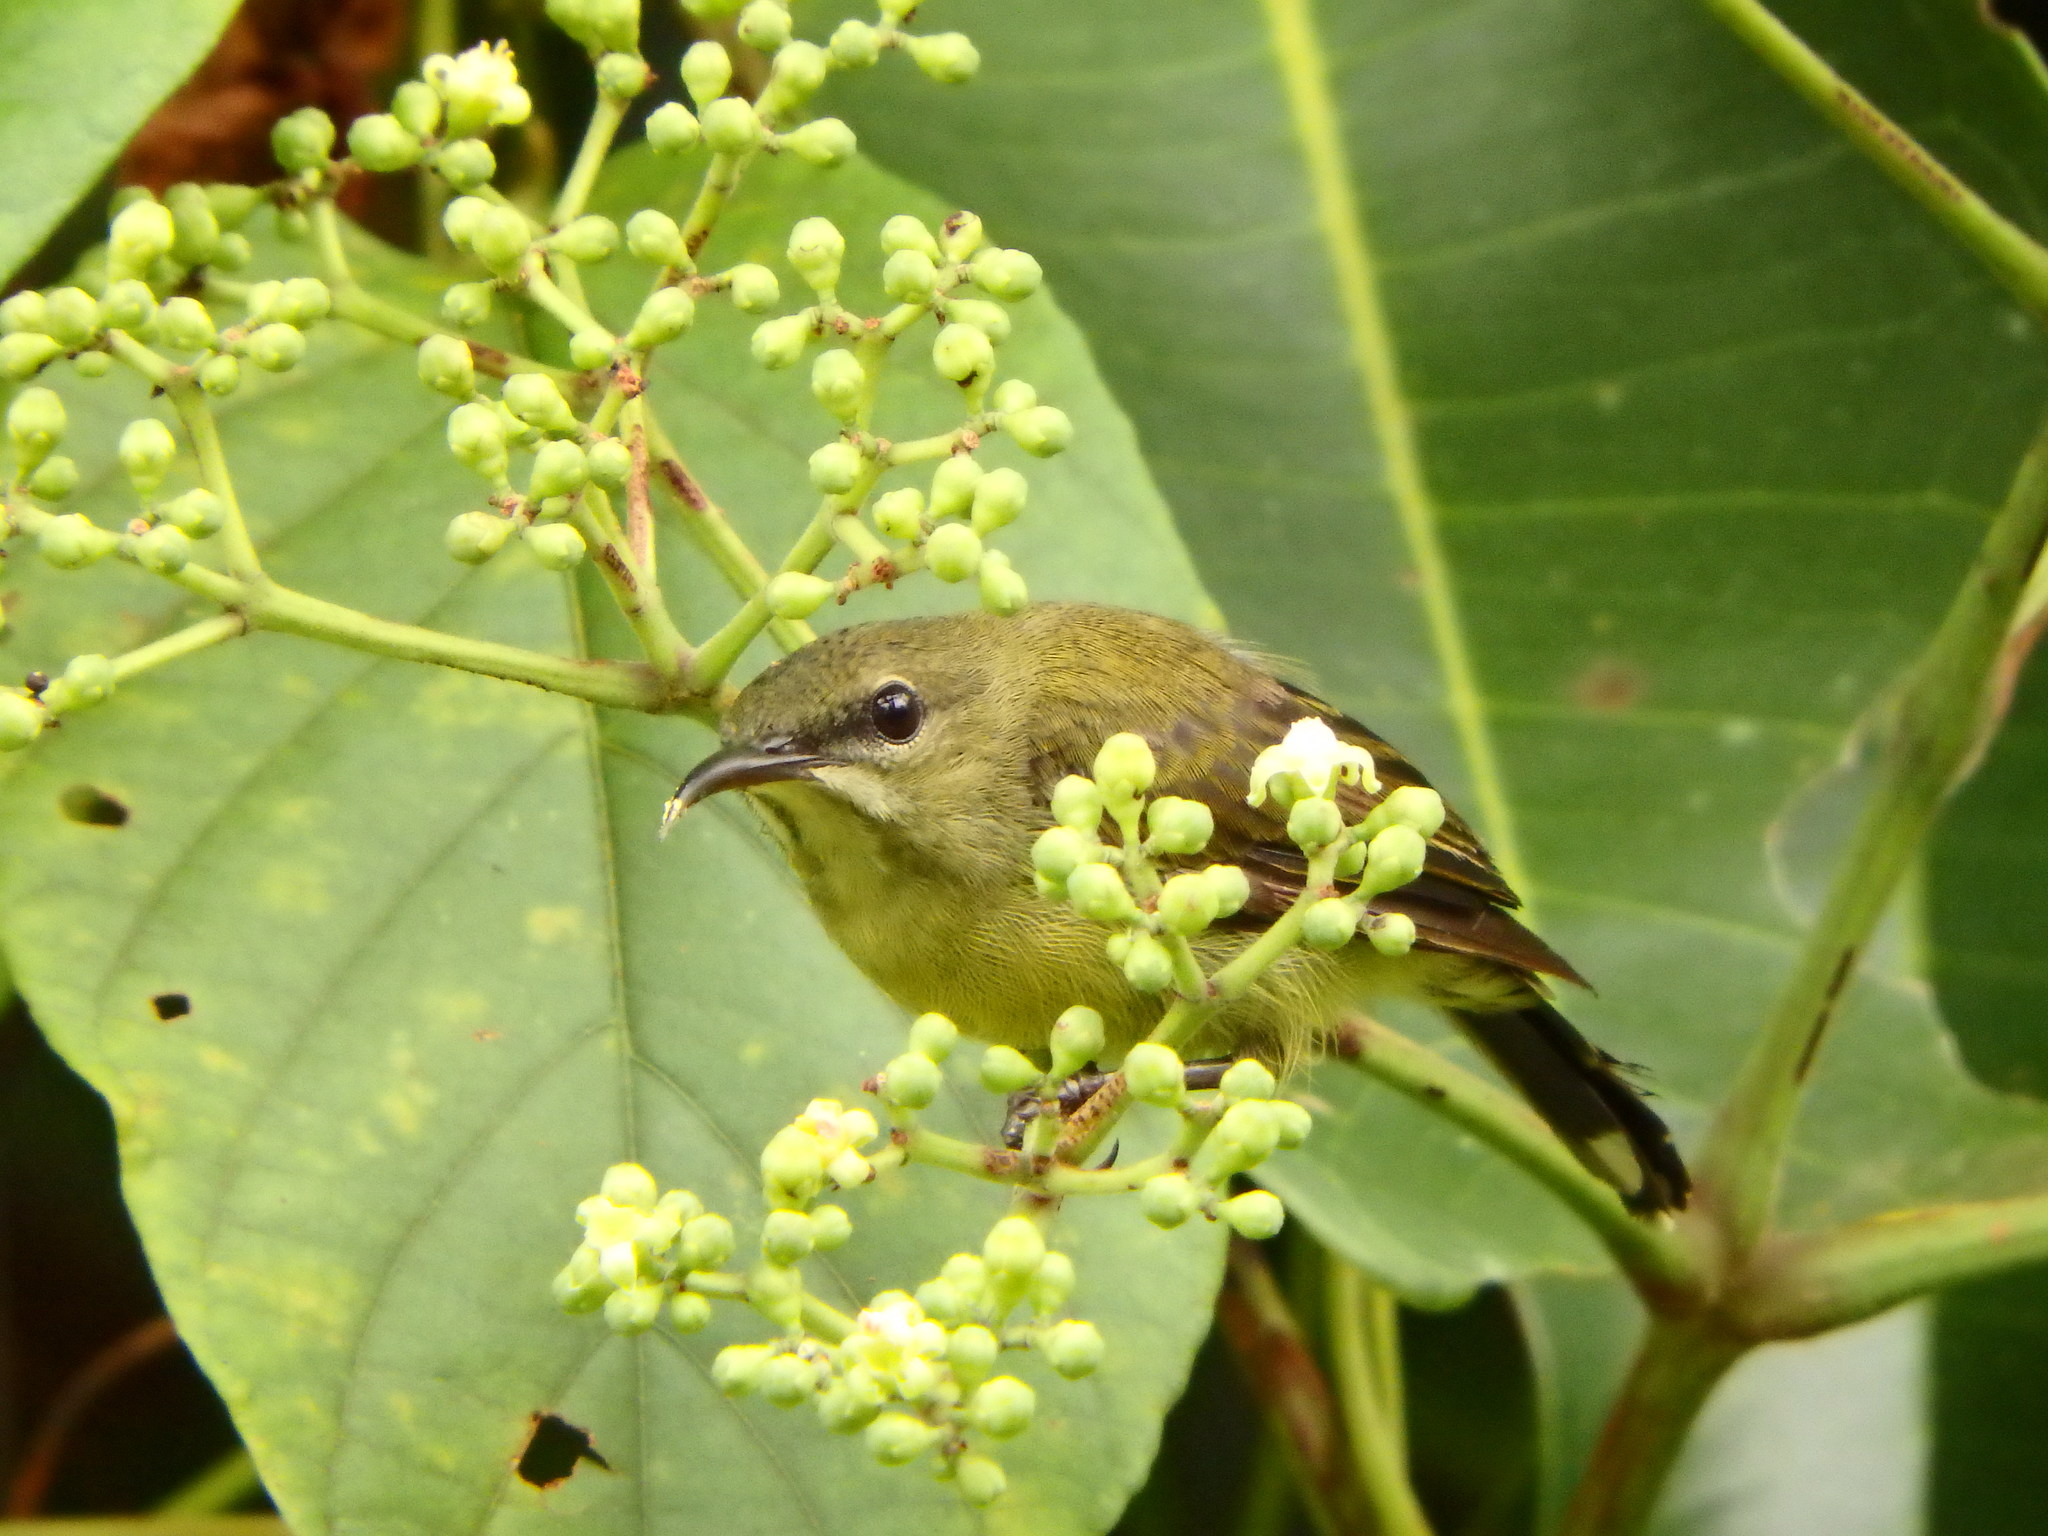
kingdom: Animalia
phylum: Chordata
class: Aves
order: Passeriformes
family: Nectariniidae
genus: Aethopyga
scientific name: Aethopyga siparaja
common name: Crimson sunbird
